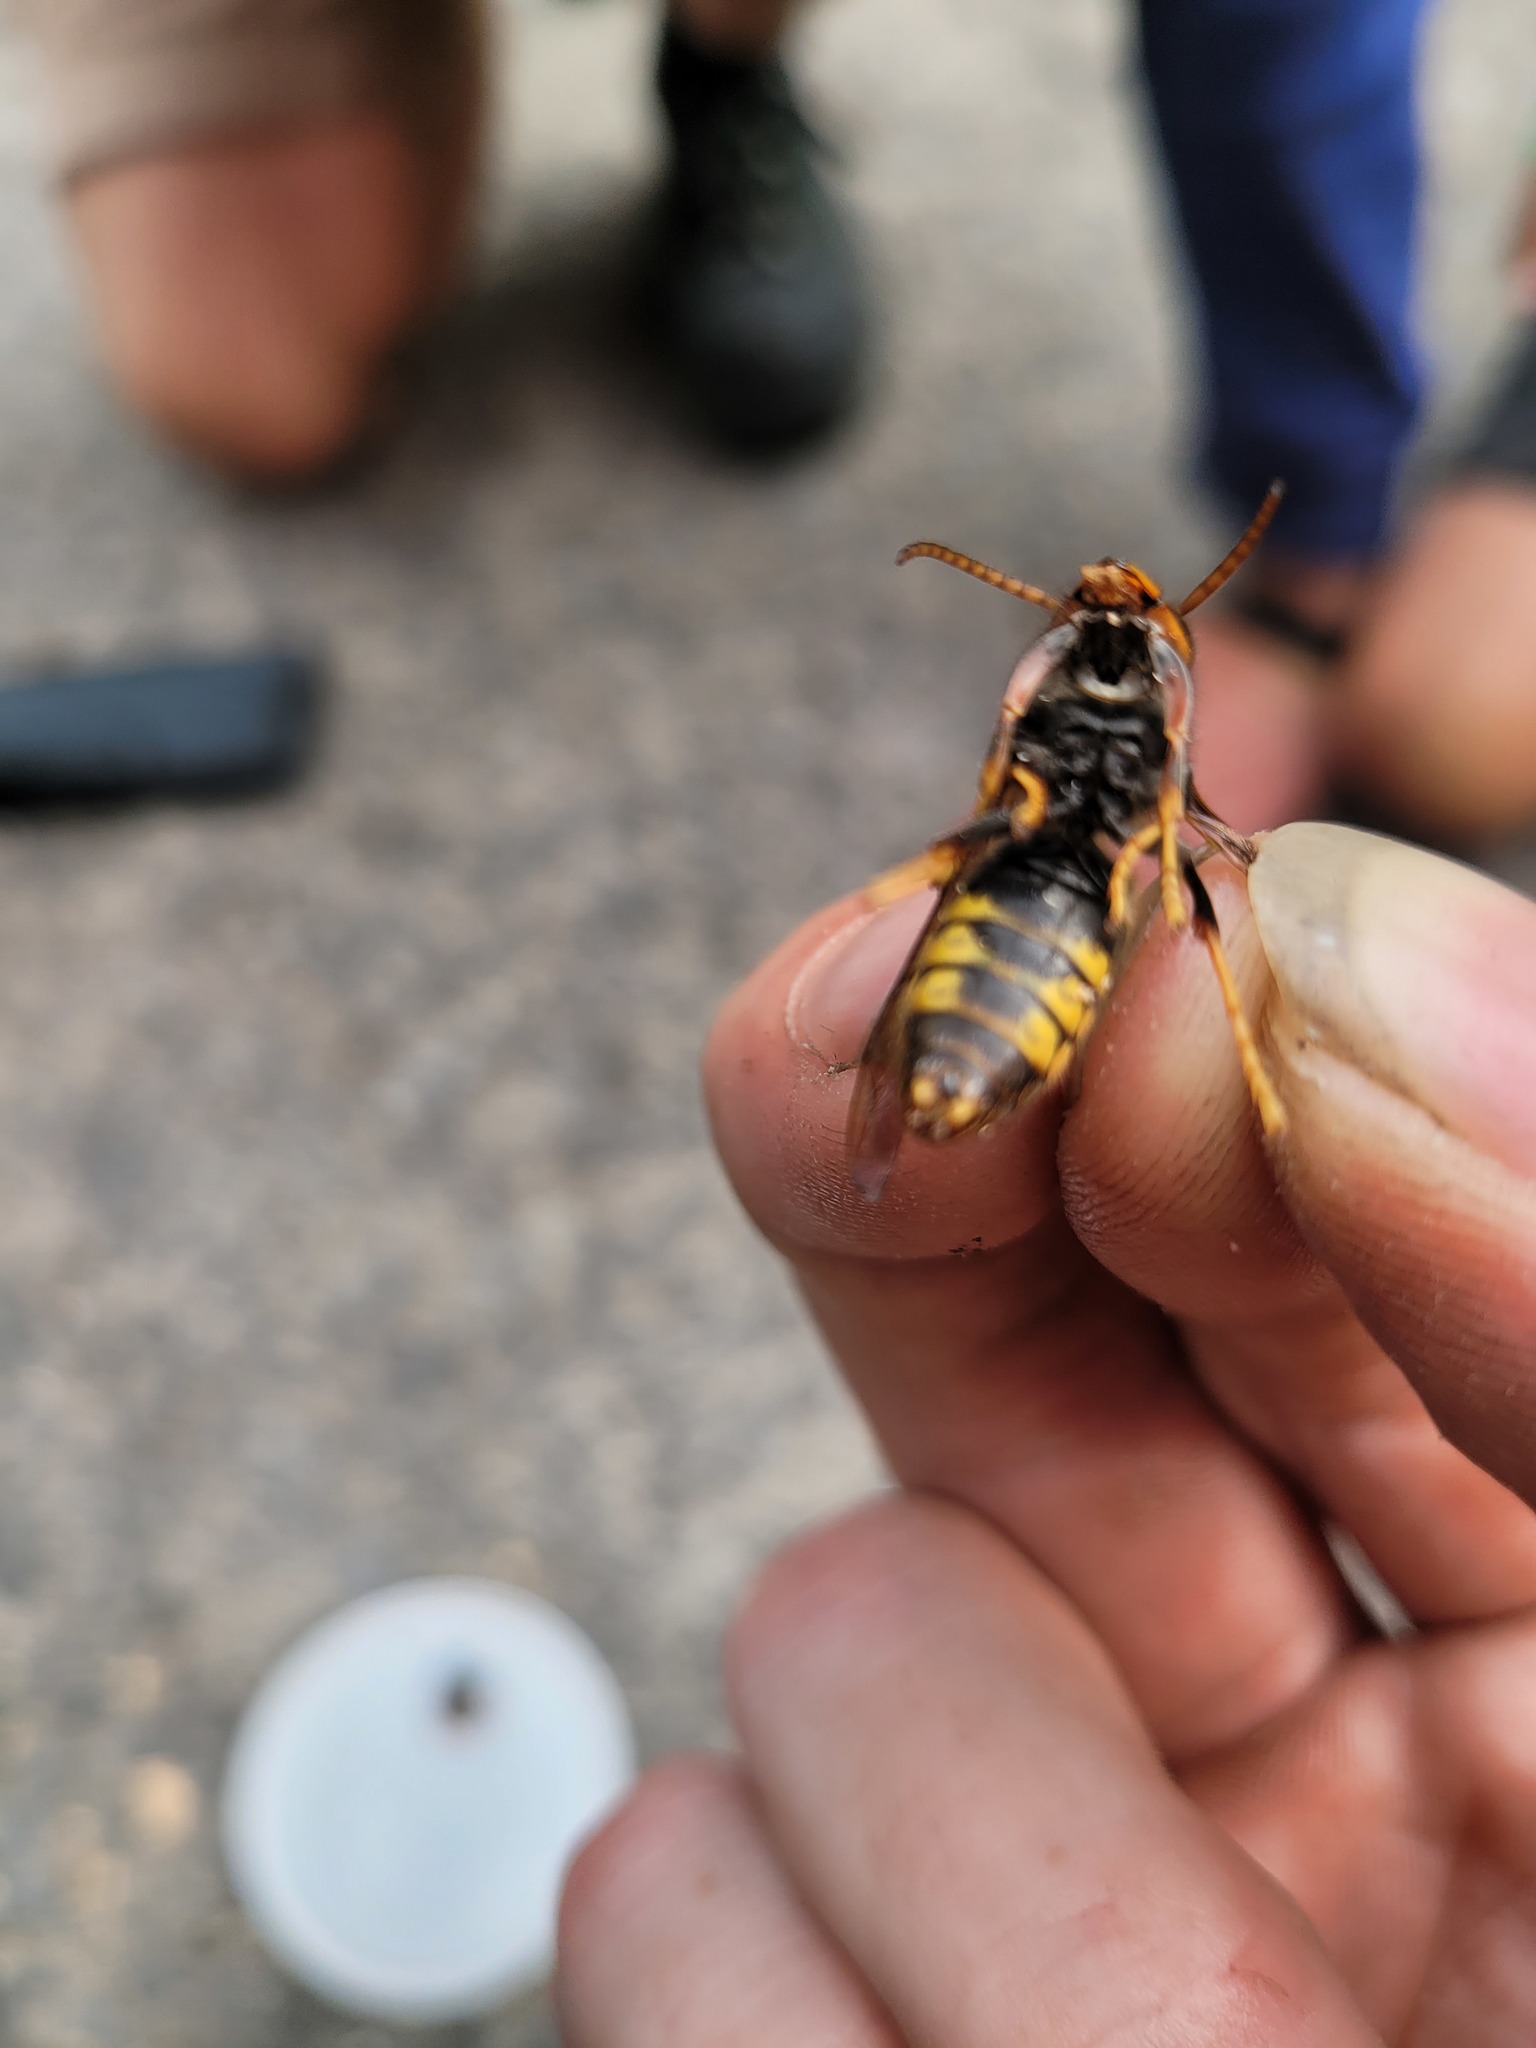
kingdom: Animalia
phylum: Arthropoda
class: Insecta
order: Hymenoptera
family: Vespidae
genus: Vespa
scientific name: Vespa velutina
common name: Asian hornet
